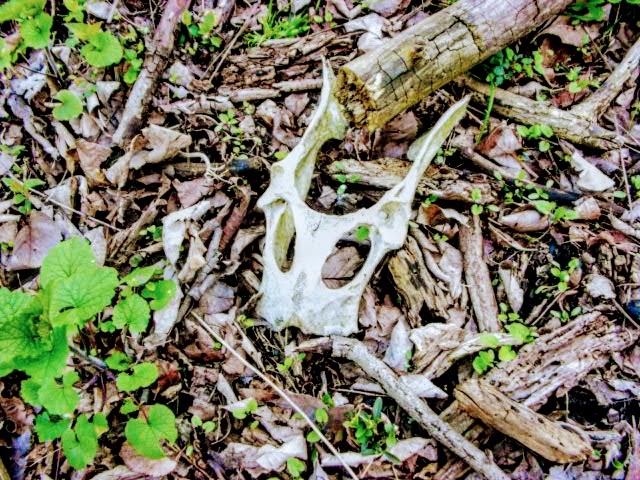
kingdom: Animalia
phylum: Chordata
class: Mammalia
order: Artiodactyla
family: Cervidae
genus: Odocoileus
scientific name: Odocoileus virginianus
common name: White-tailed deer
